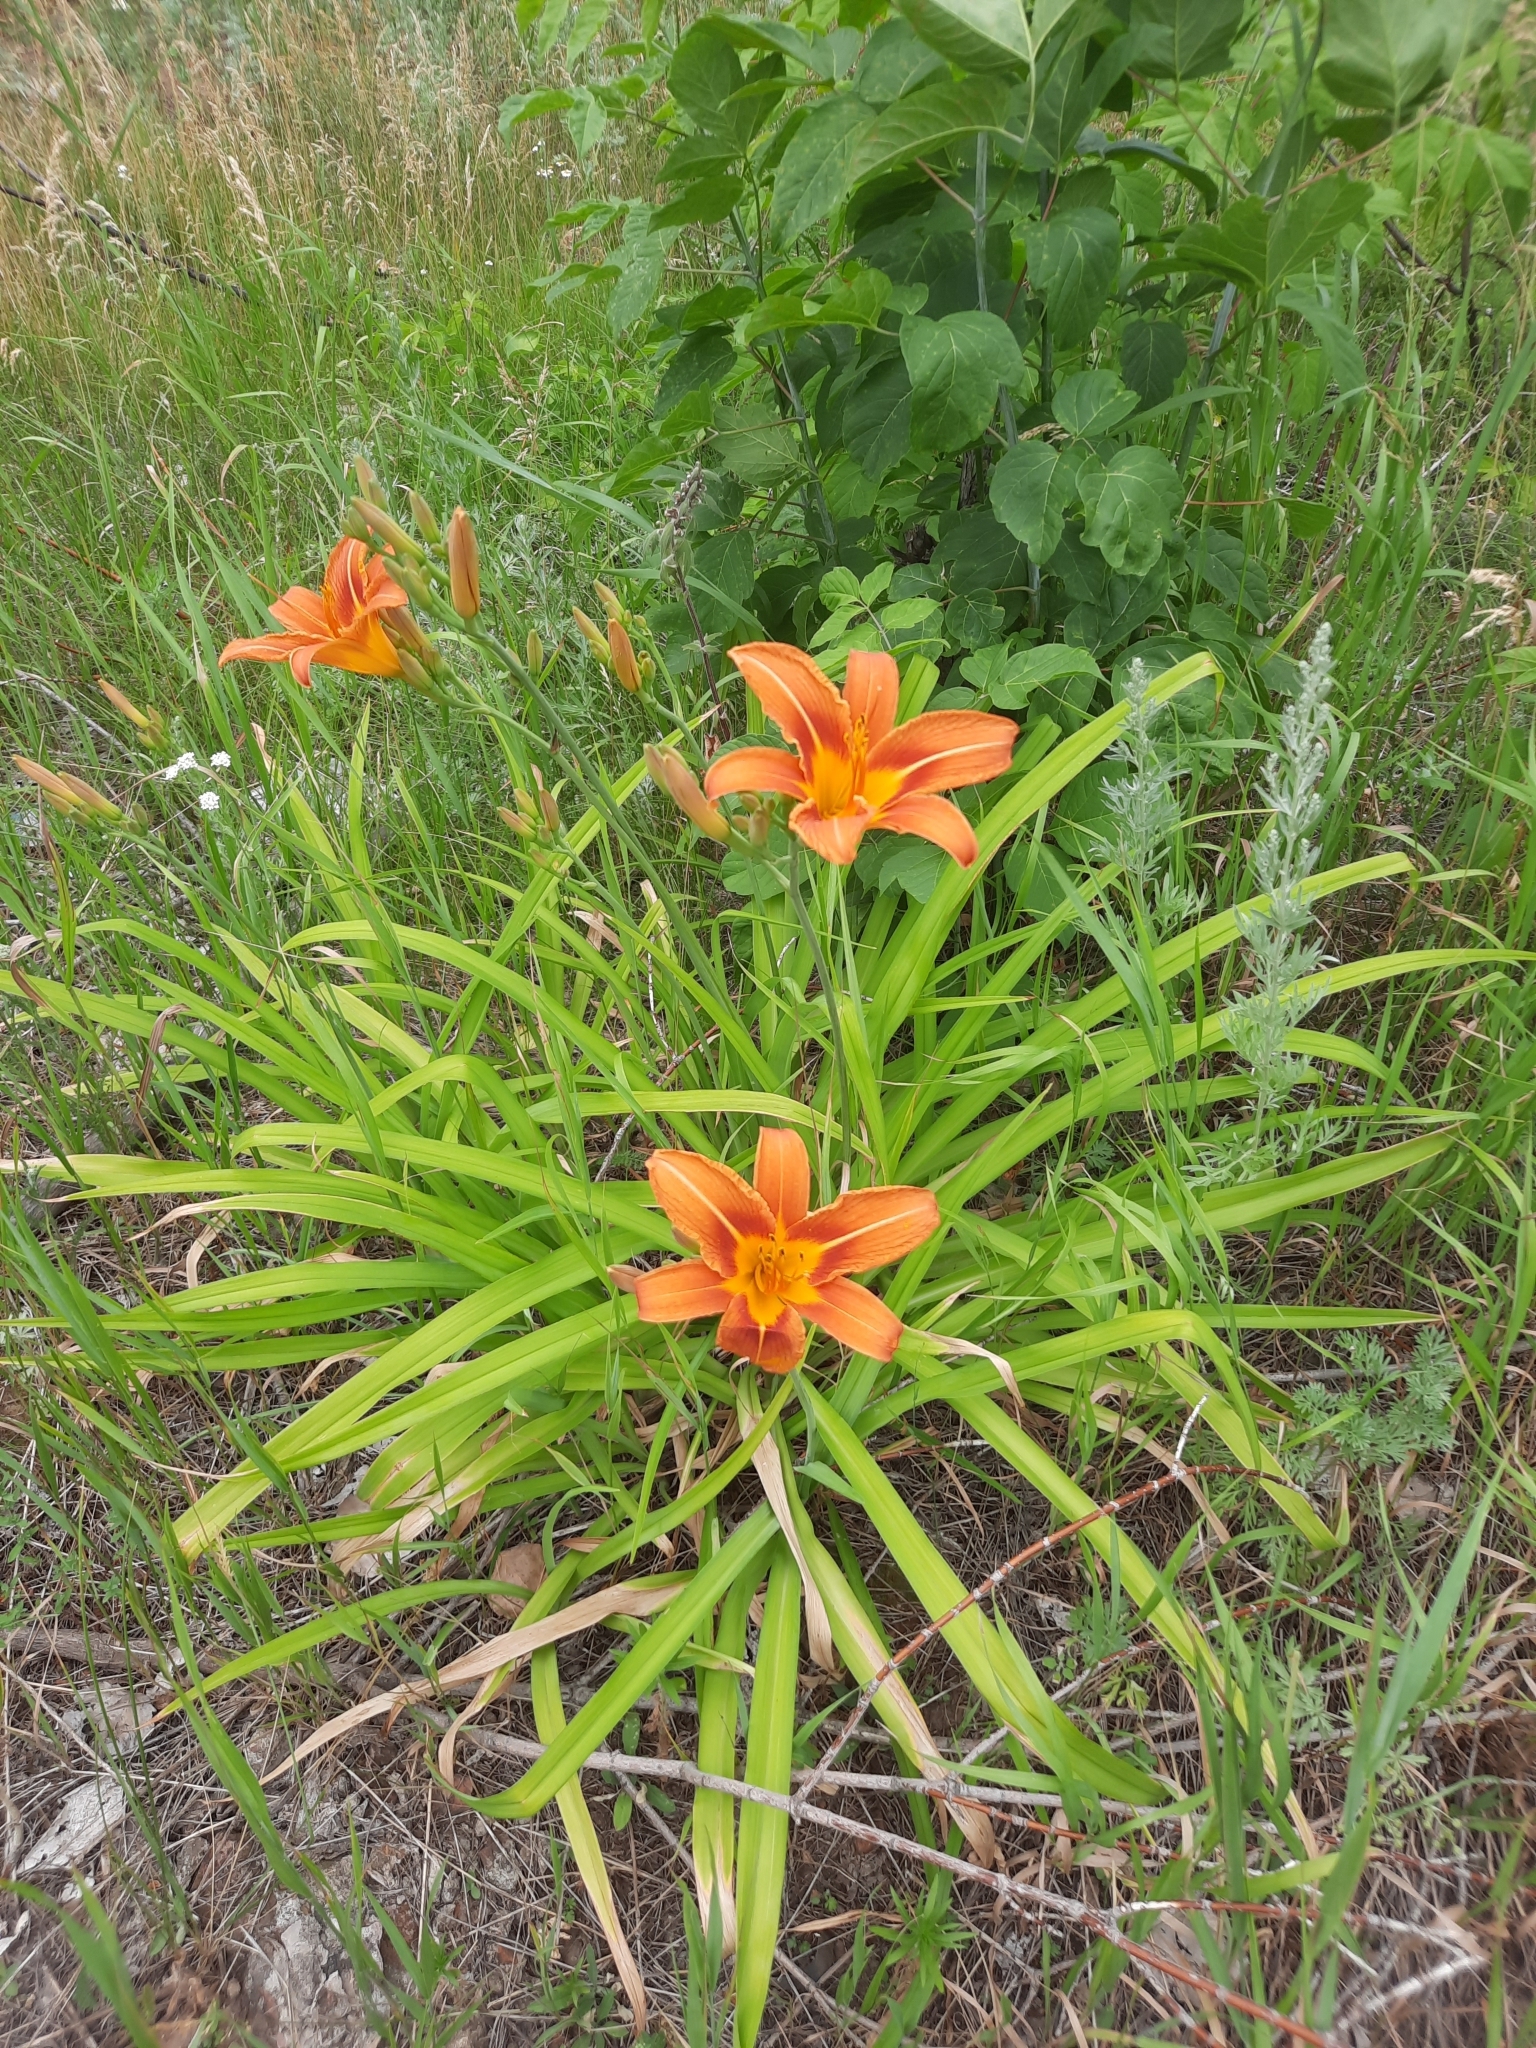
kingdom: Plantae
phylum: Tracheophyta
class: Liliopsida
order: Asparagales
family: Asphodelaceae
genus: Hemerocallis
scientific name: Hemerocallis fulva
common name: Orange day-lily
